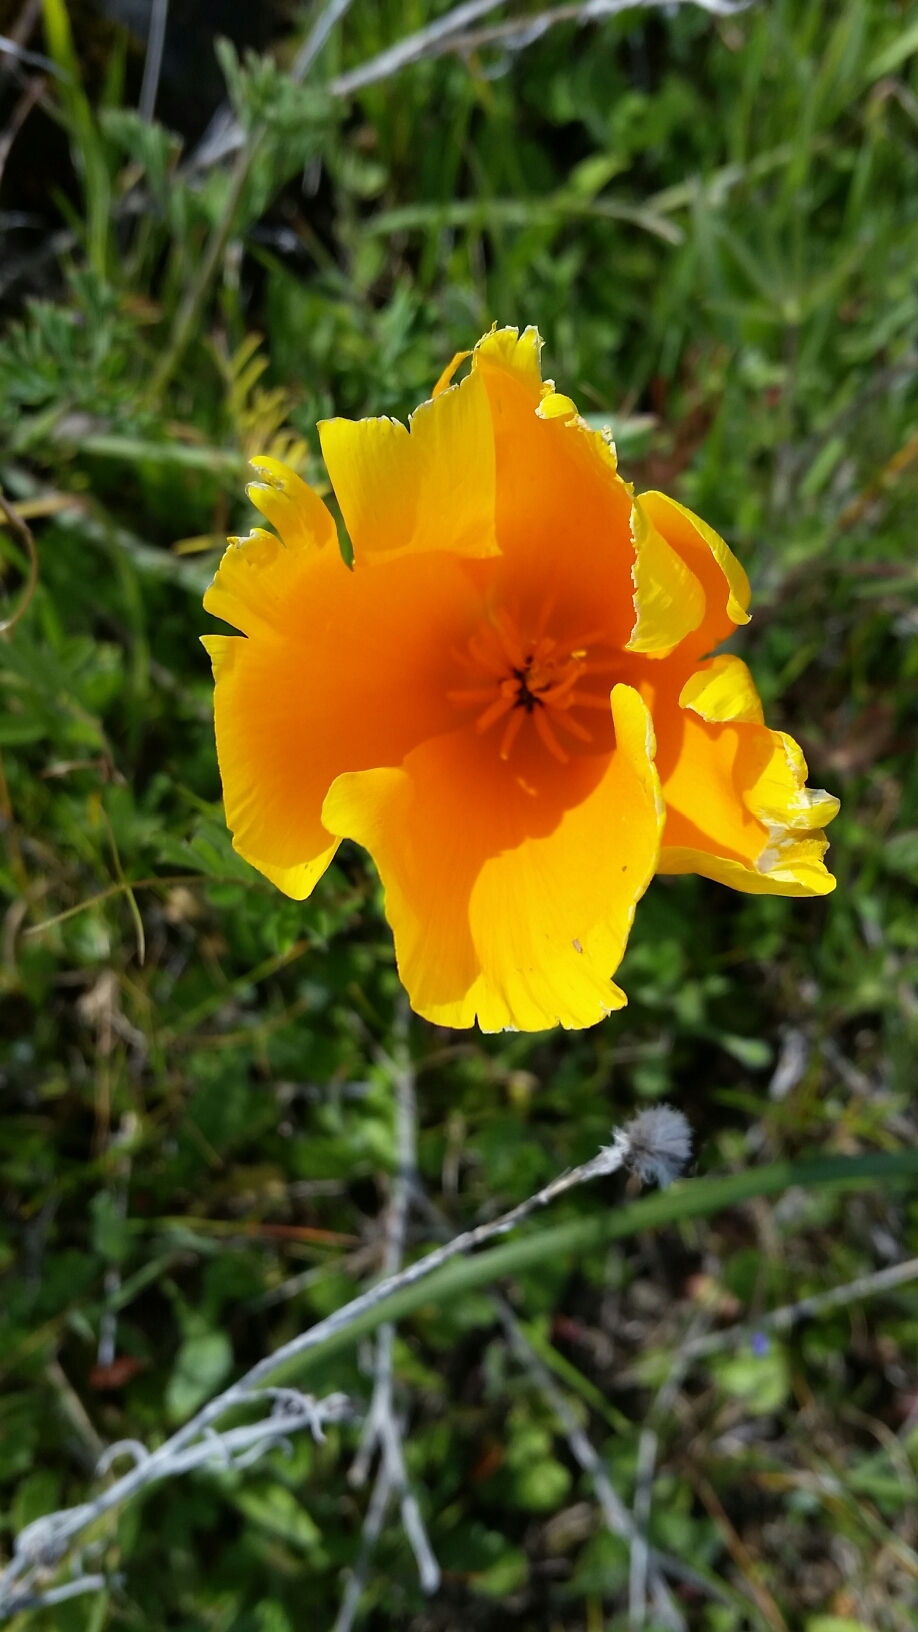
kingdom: Plantae
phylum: Tracheophyta
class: Magnoliopsida
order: Ranunculales
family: Papaveraceae
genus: Eschscholzia
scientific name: Eschscholzia californica
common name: California poppy
